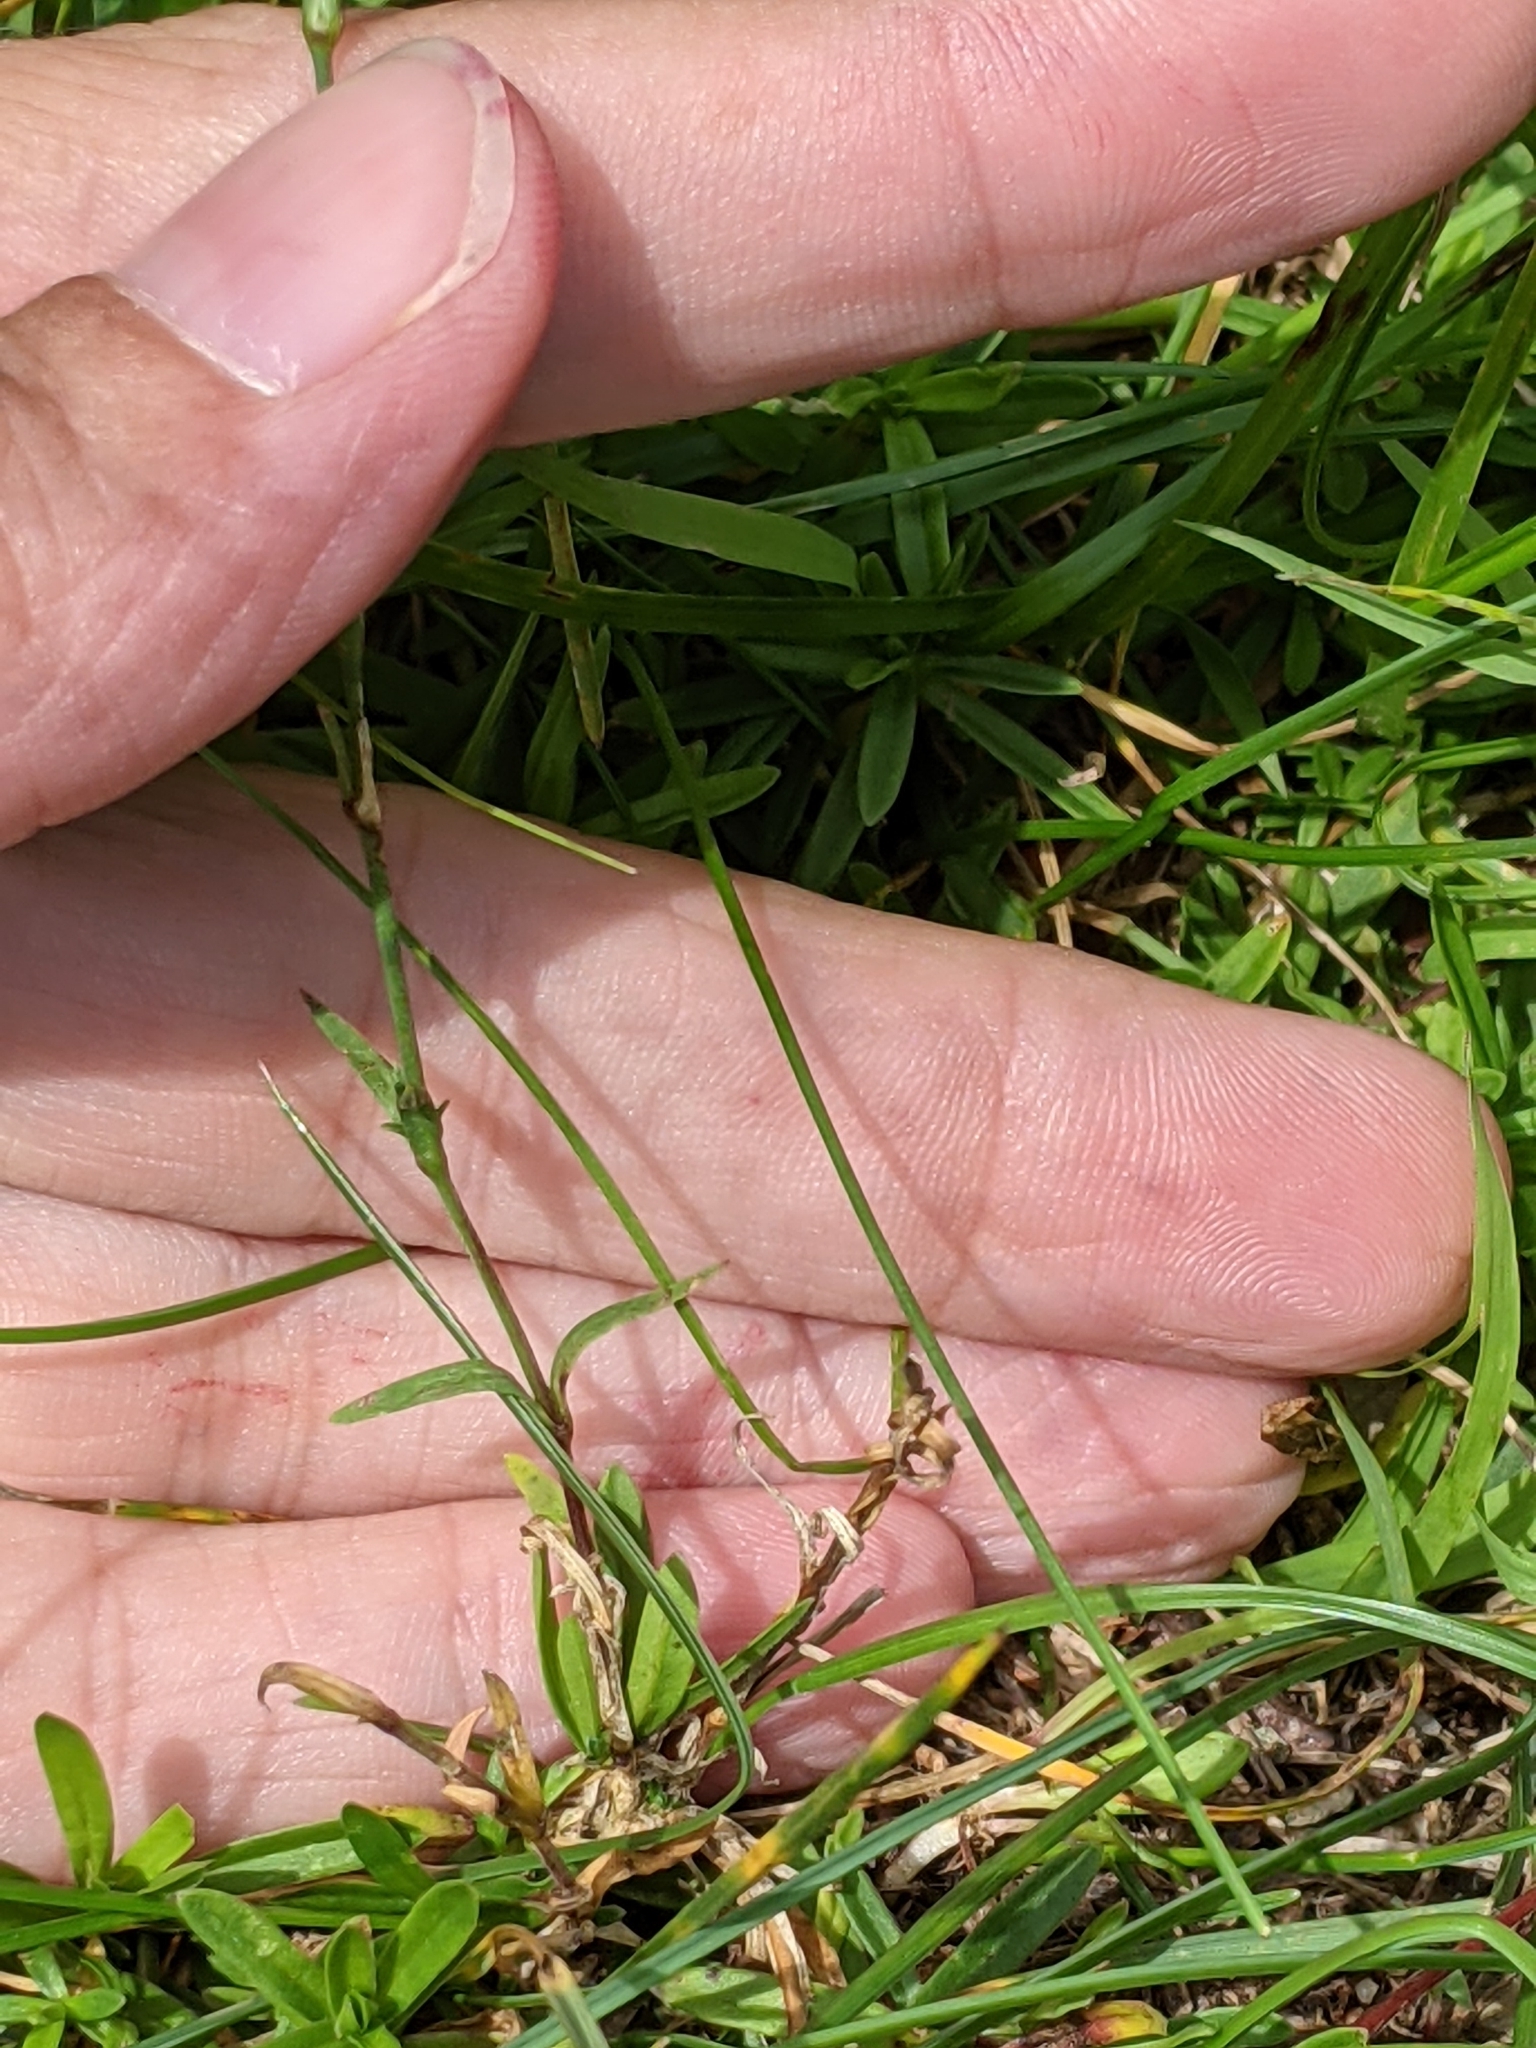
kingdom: Plantae
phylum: Tracheophyta
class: Magnoliopsida
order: Caryophyllales
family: Caryophyllaceae
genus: Dianthus
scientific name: Dianthus deltoides
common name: Maiden pink
